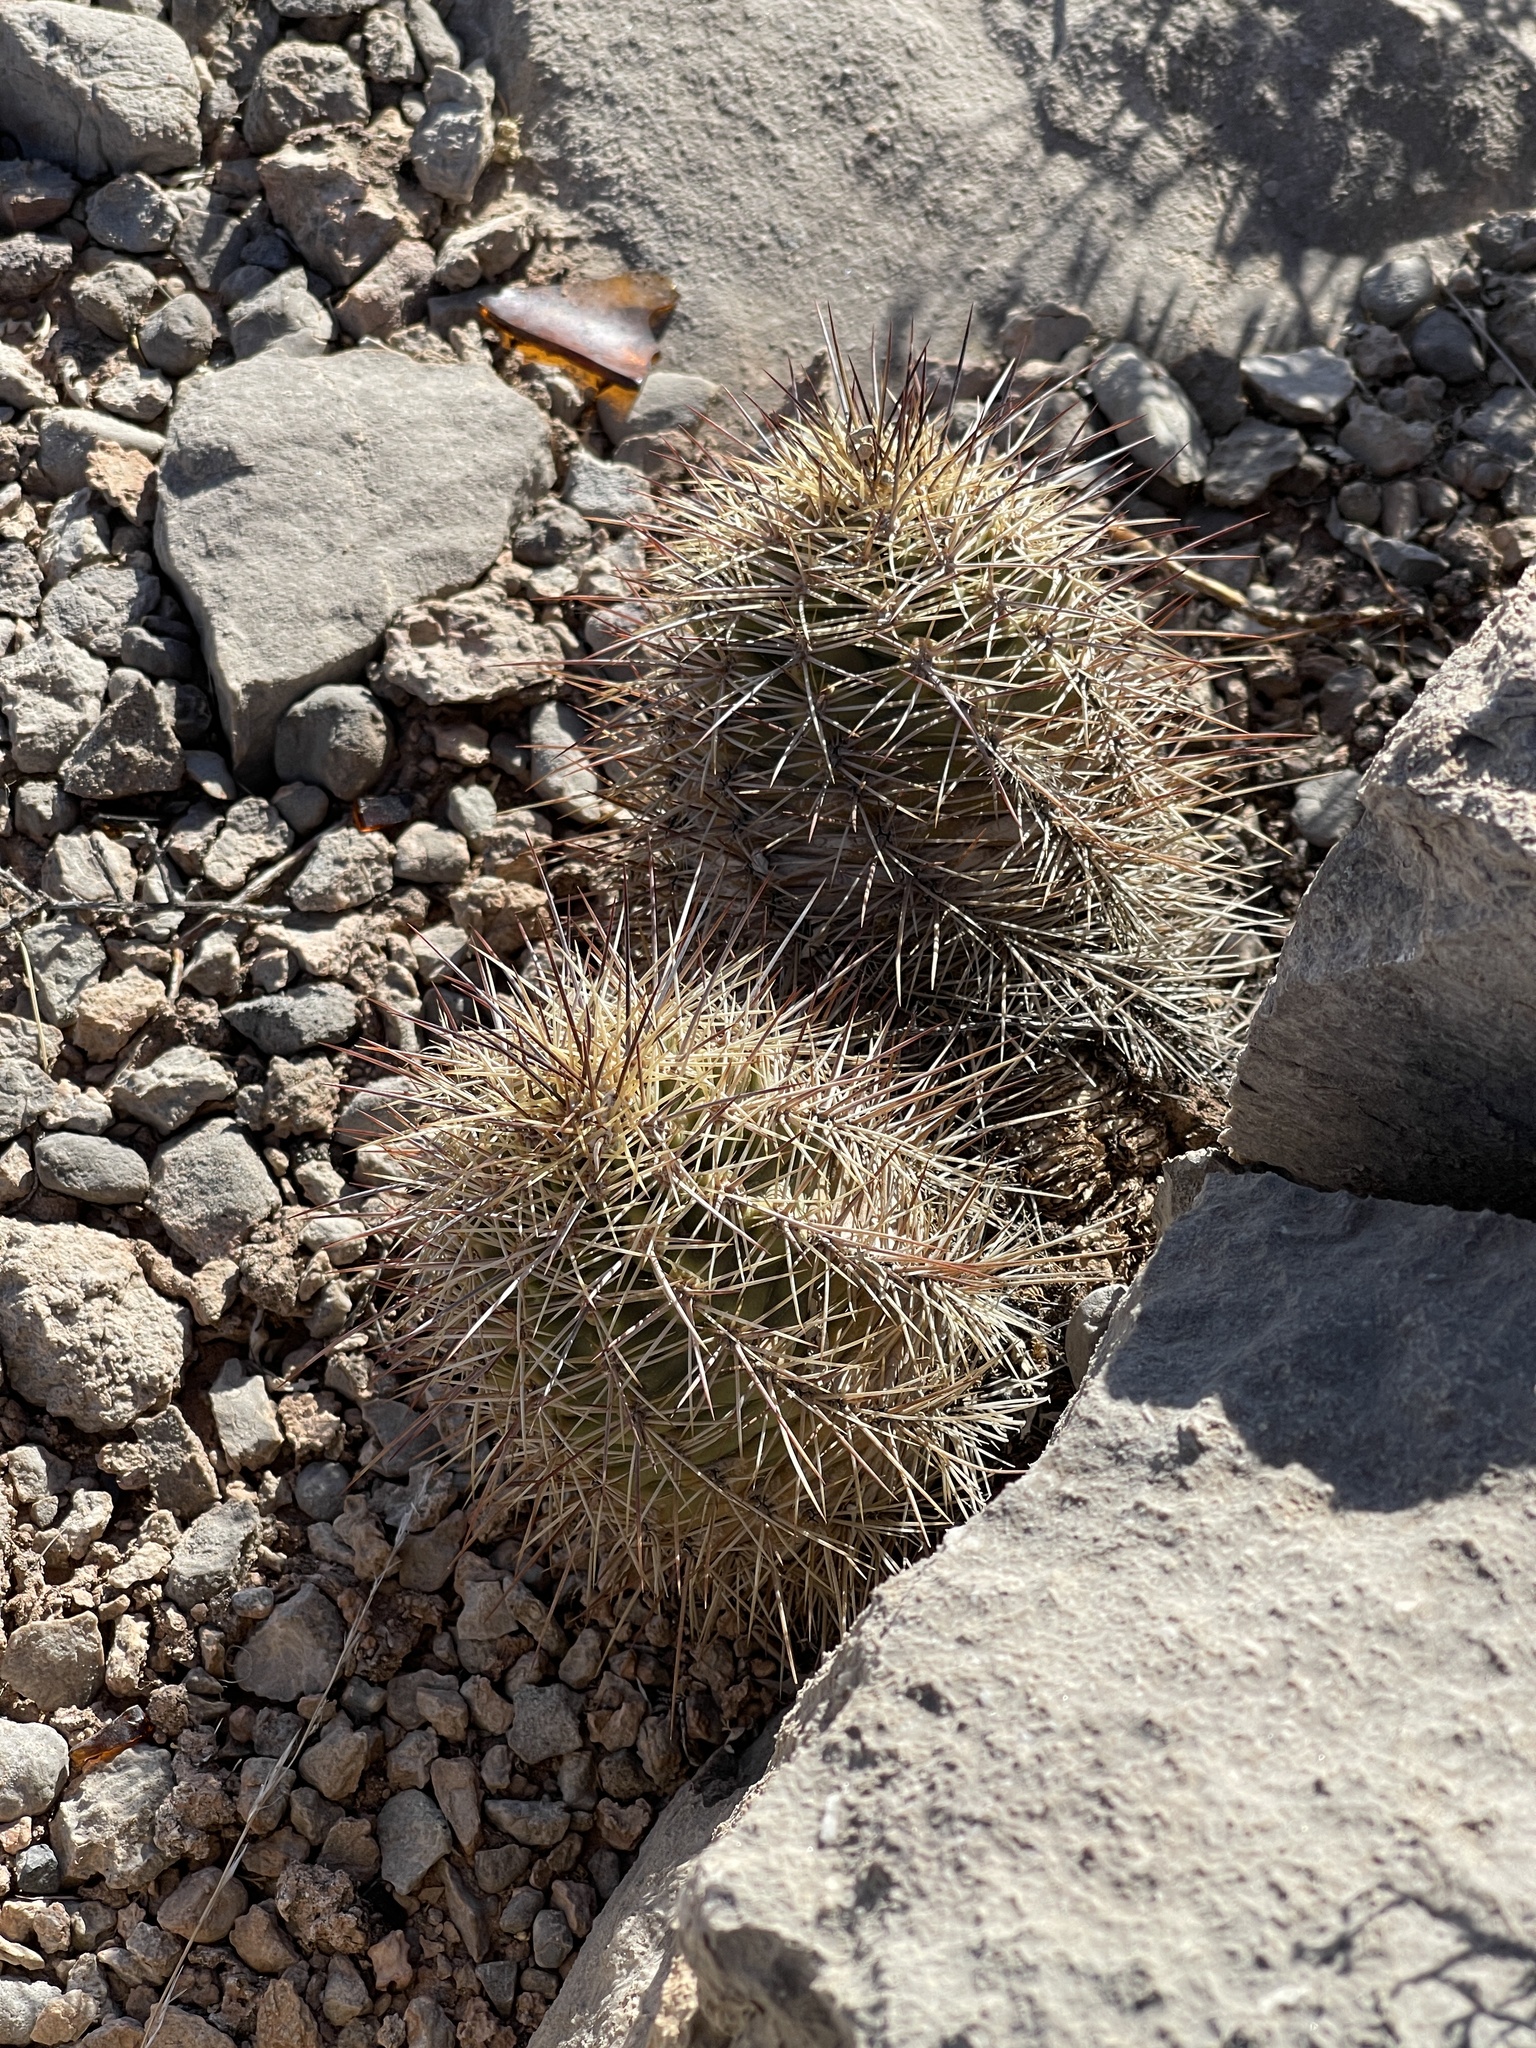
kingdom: Plantae
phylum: Tracheophyta
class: Magnoliopsida
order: Caryophyllales
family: Cactaceae
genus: Echinocereus
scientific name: Echinocereus coccineus
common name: Scarlet hedgehog cactus
